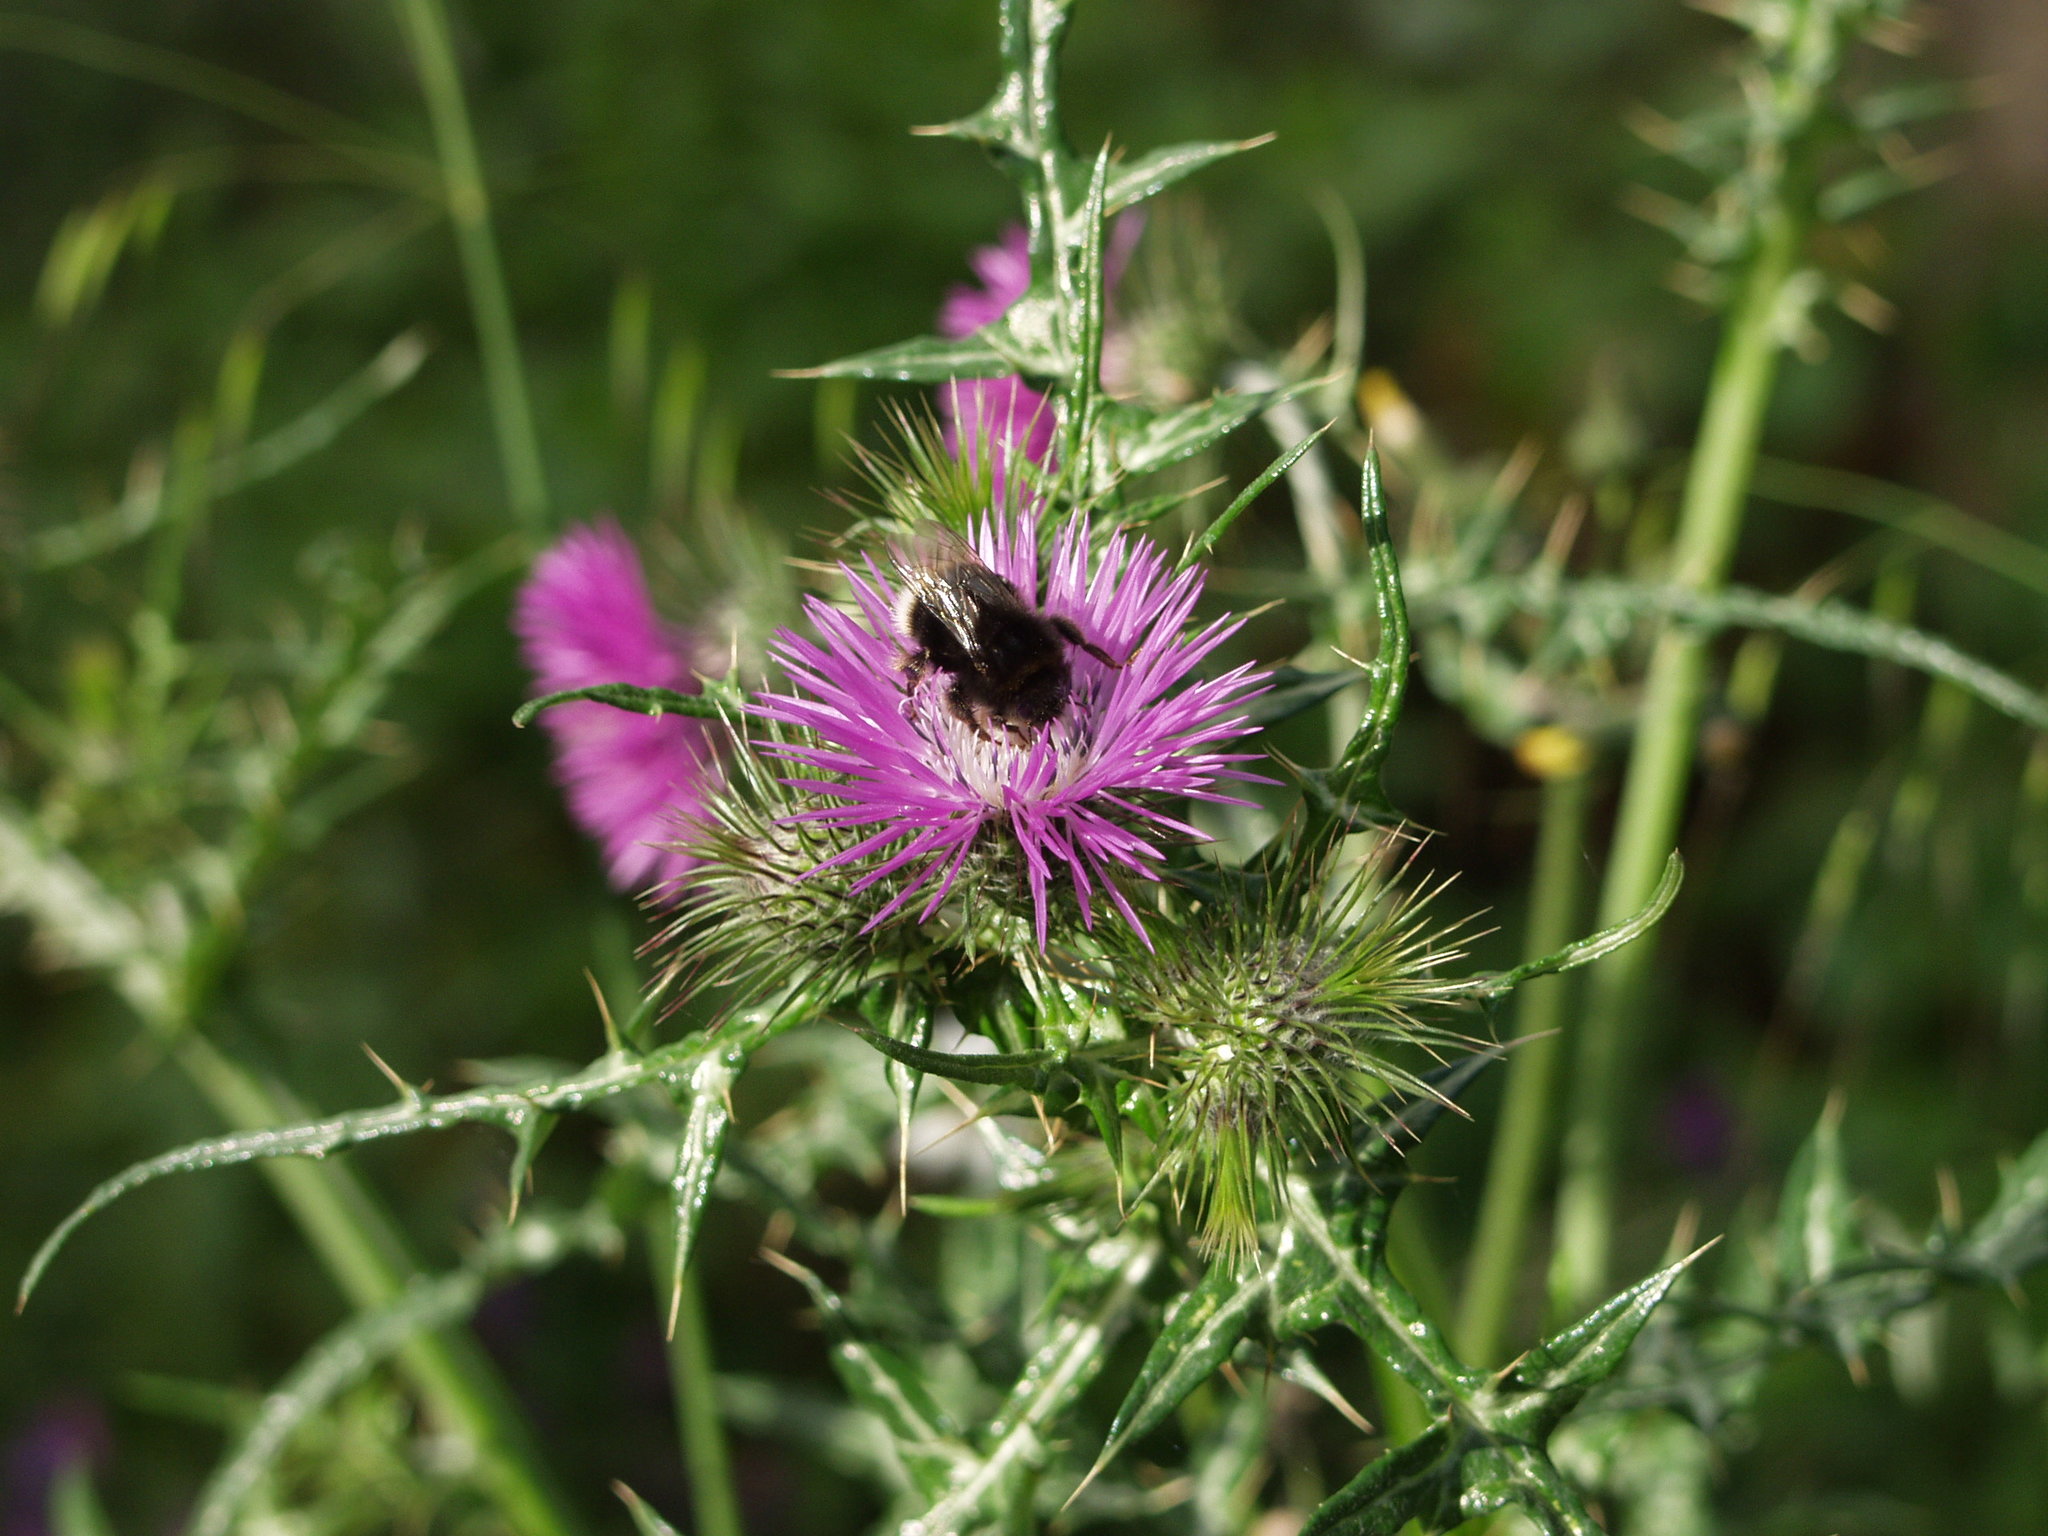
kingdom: Plantae
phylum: Tracheophyta
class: Magnoliopsida
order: Asterales
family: Asteraceae
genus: Galactites
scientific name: Galactites tomentosa
